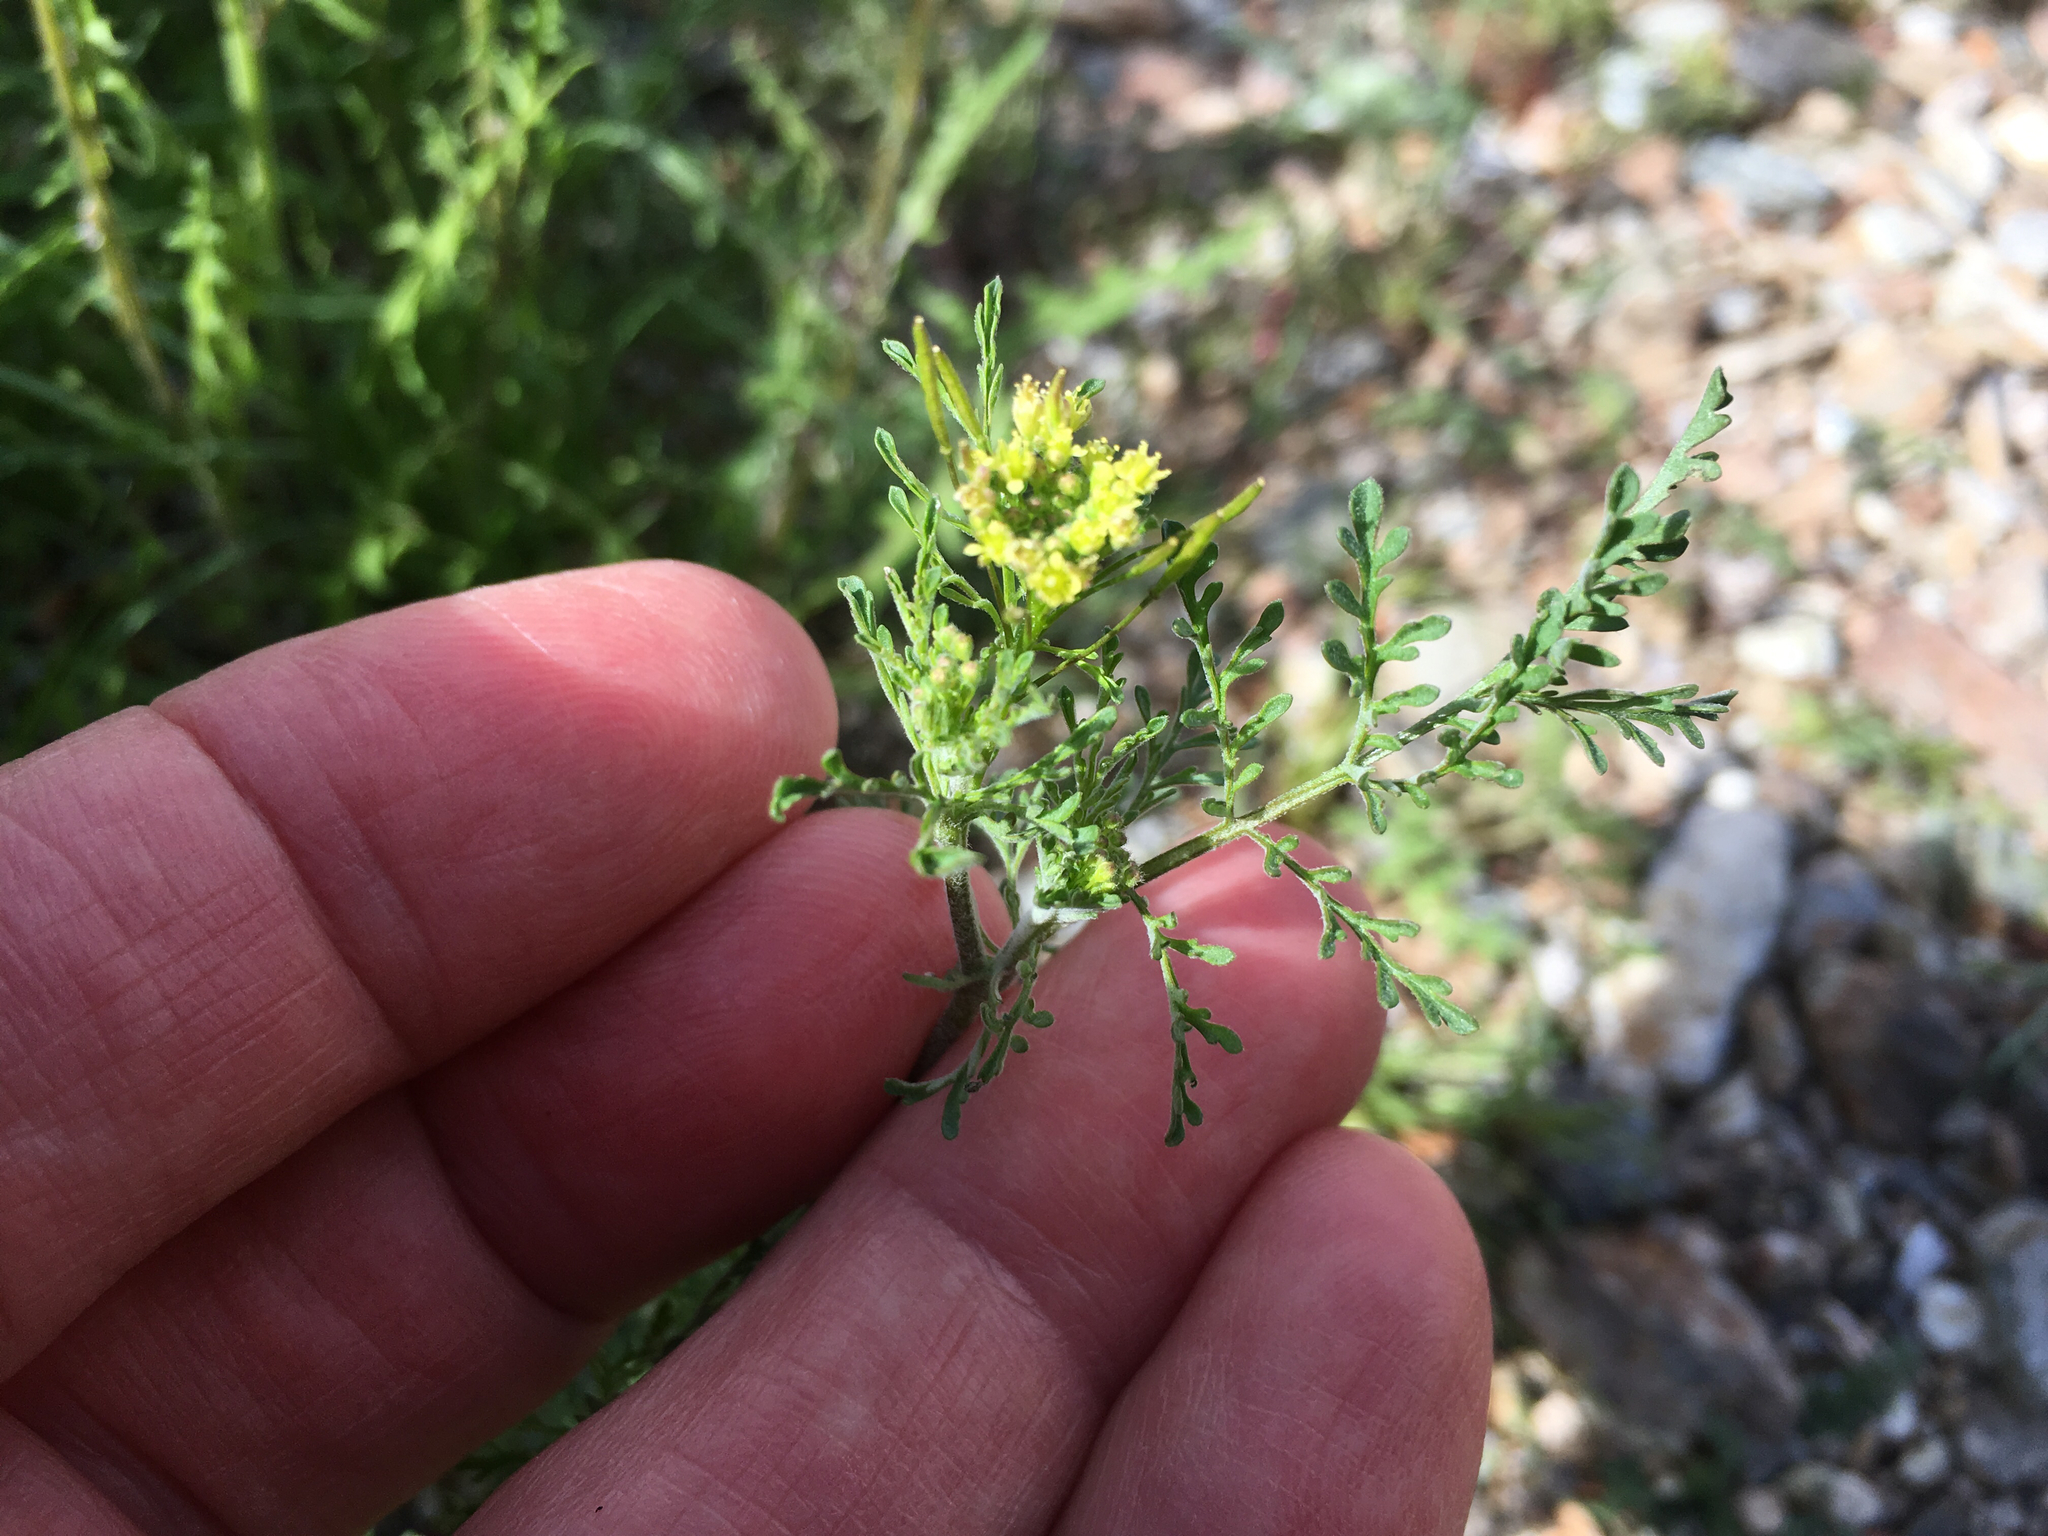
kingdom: Plantae
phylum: Tracheophyta
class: Magnoliopsida
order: Brassicales
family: Brassicaceae
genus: Descurainia
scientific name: Descurainia pinnata
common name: Western tansy mustard
